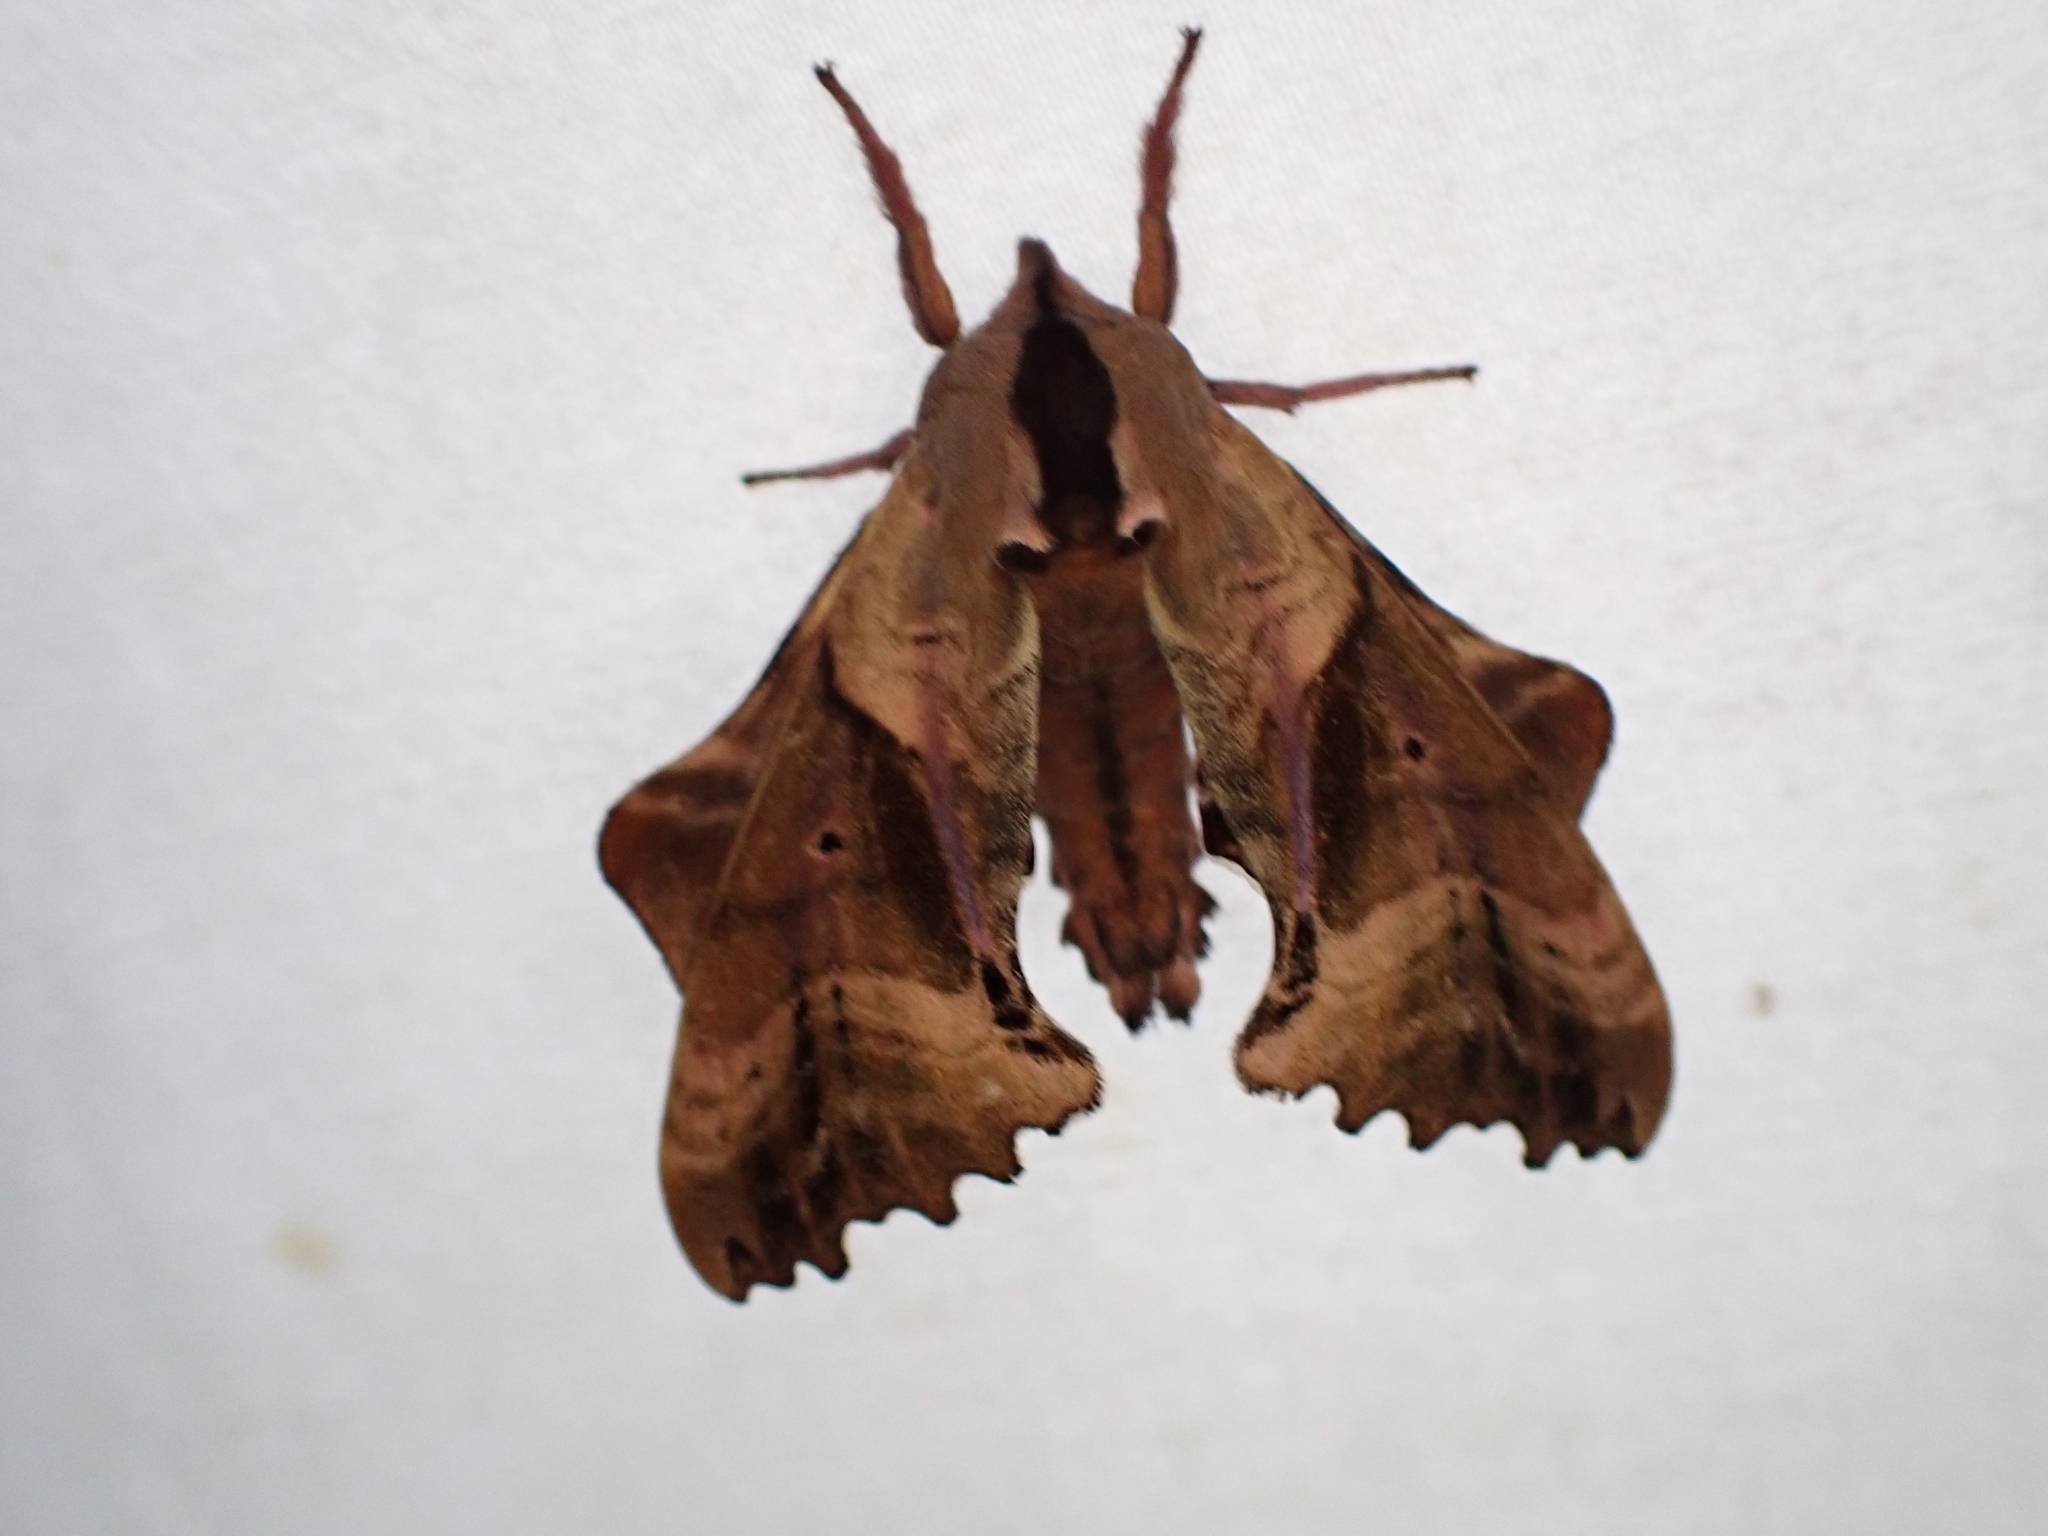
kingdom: Animalia
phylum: Arthropoda
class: Insecta
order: Lepidoptera
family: Sphingidae
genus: Paonias
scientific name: Paonias excaecata
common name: Blind-eyed sphinx
